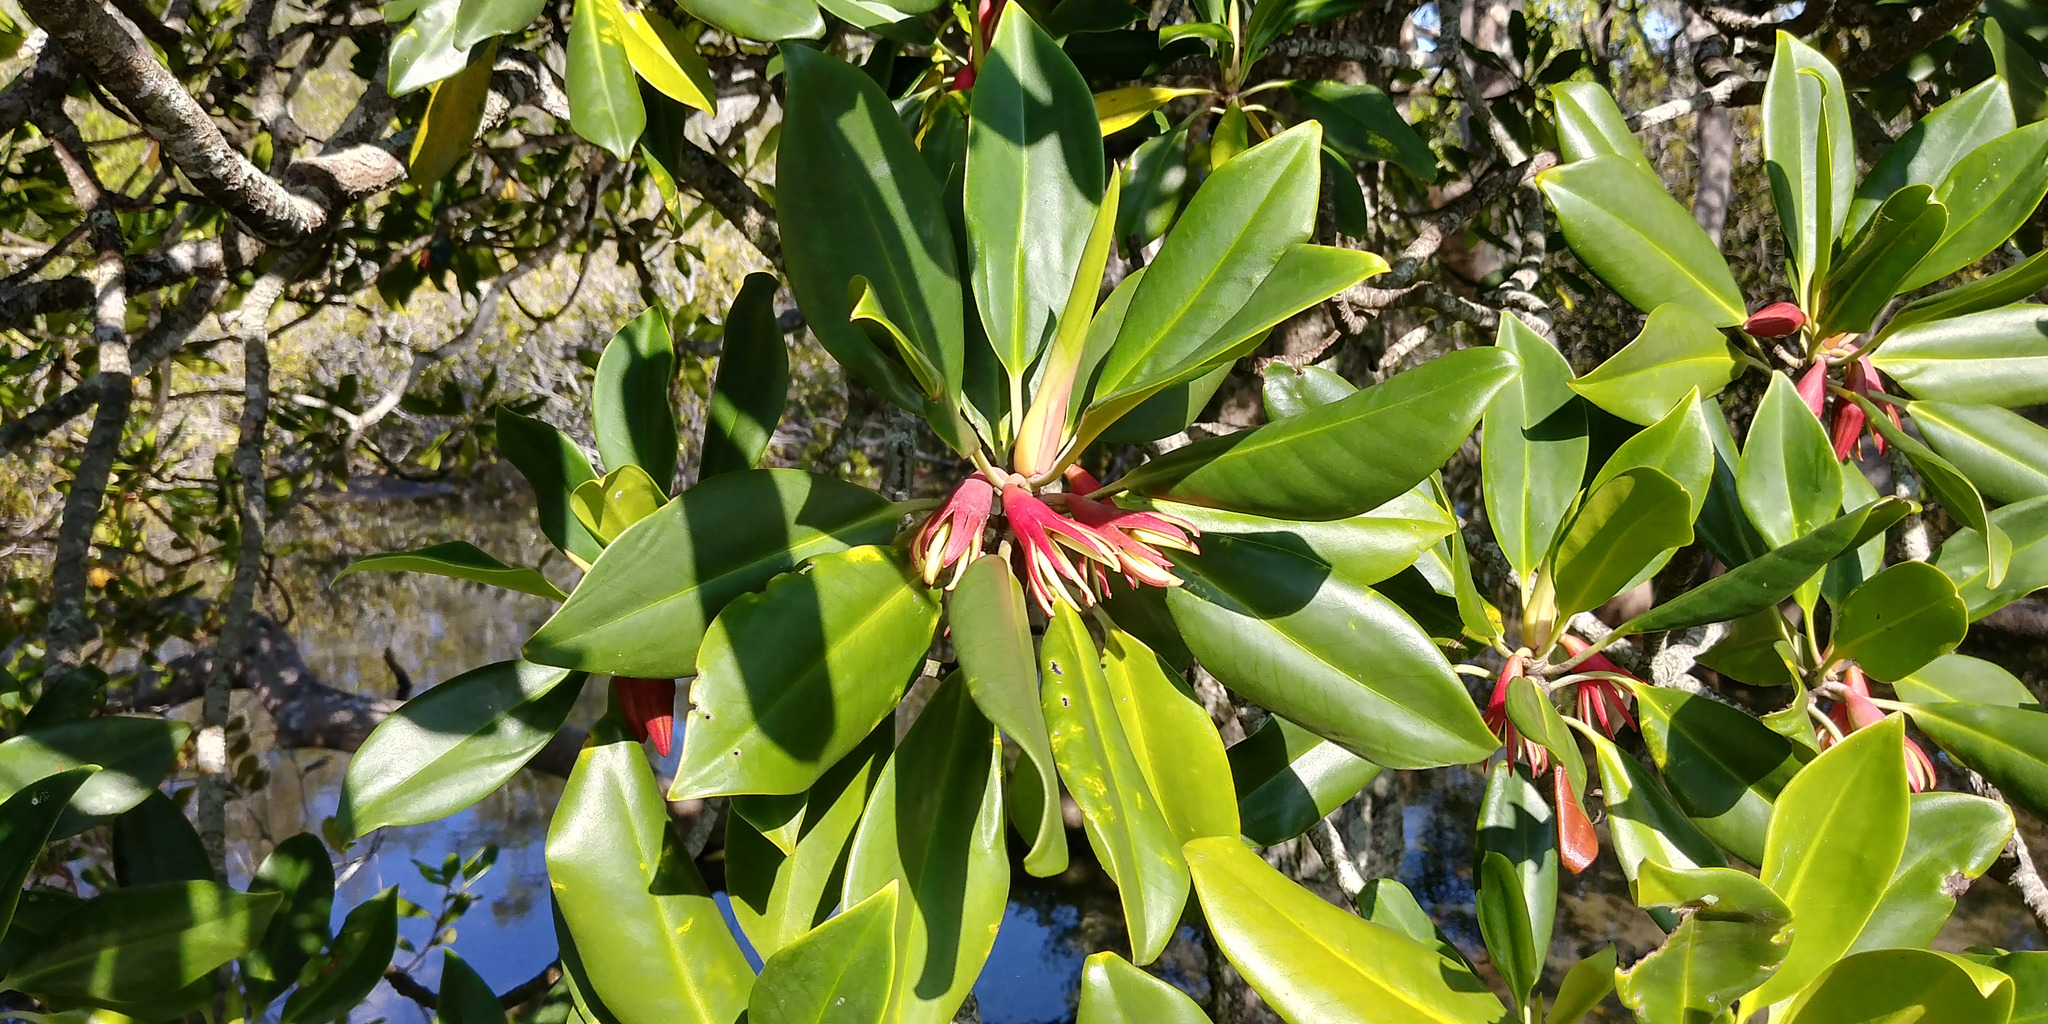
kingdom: Plantae
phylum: Tracheophyta
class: Magnoliopsida
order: Malpighiales
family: Rhizophoraceae
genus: Bruguiera
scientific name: Bruguiera gymnorhiza
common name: Oriental mangrove
